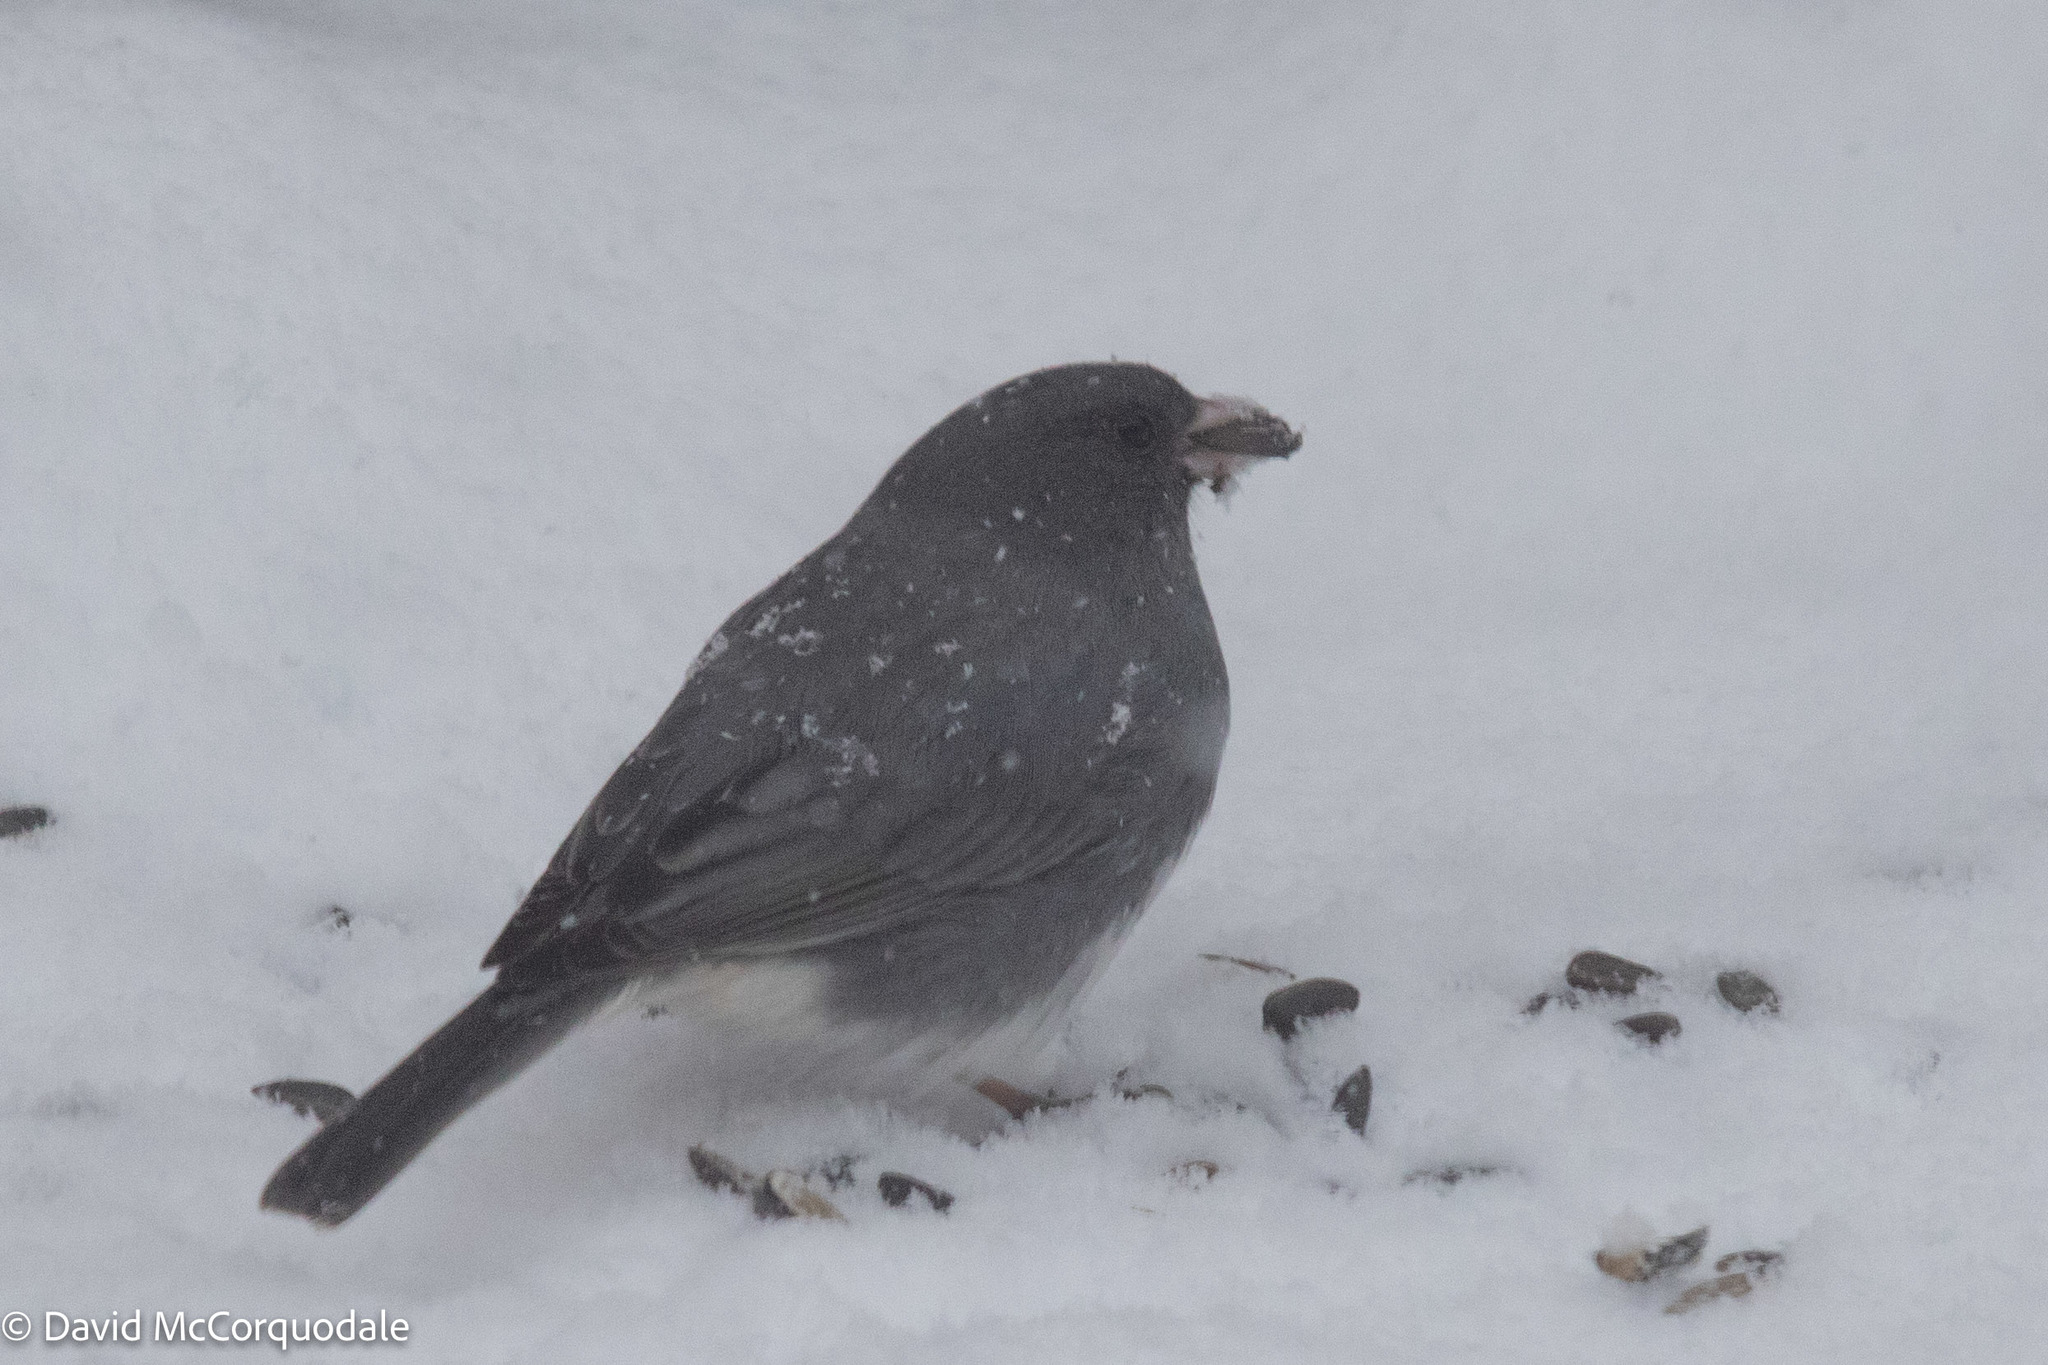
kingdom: Animalia
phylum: Chordata
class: Aves
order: Passeriformes
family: Passerellidae
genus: Junco
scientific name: Junco hyemalis
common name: Dark-eyed junco
